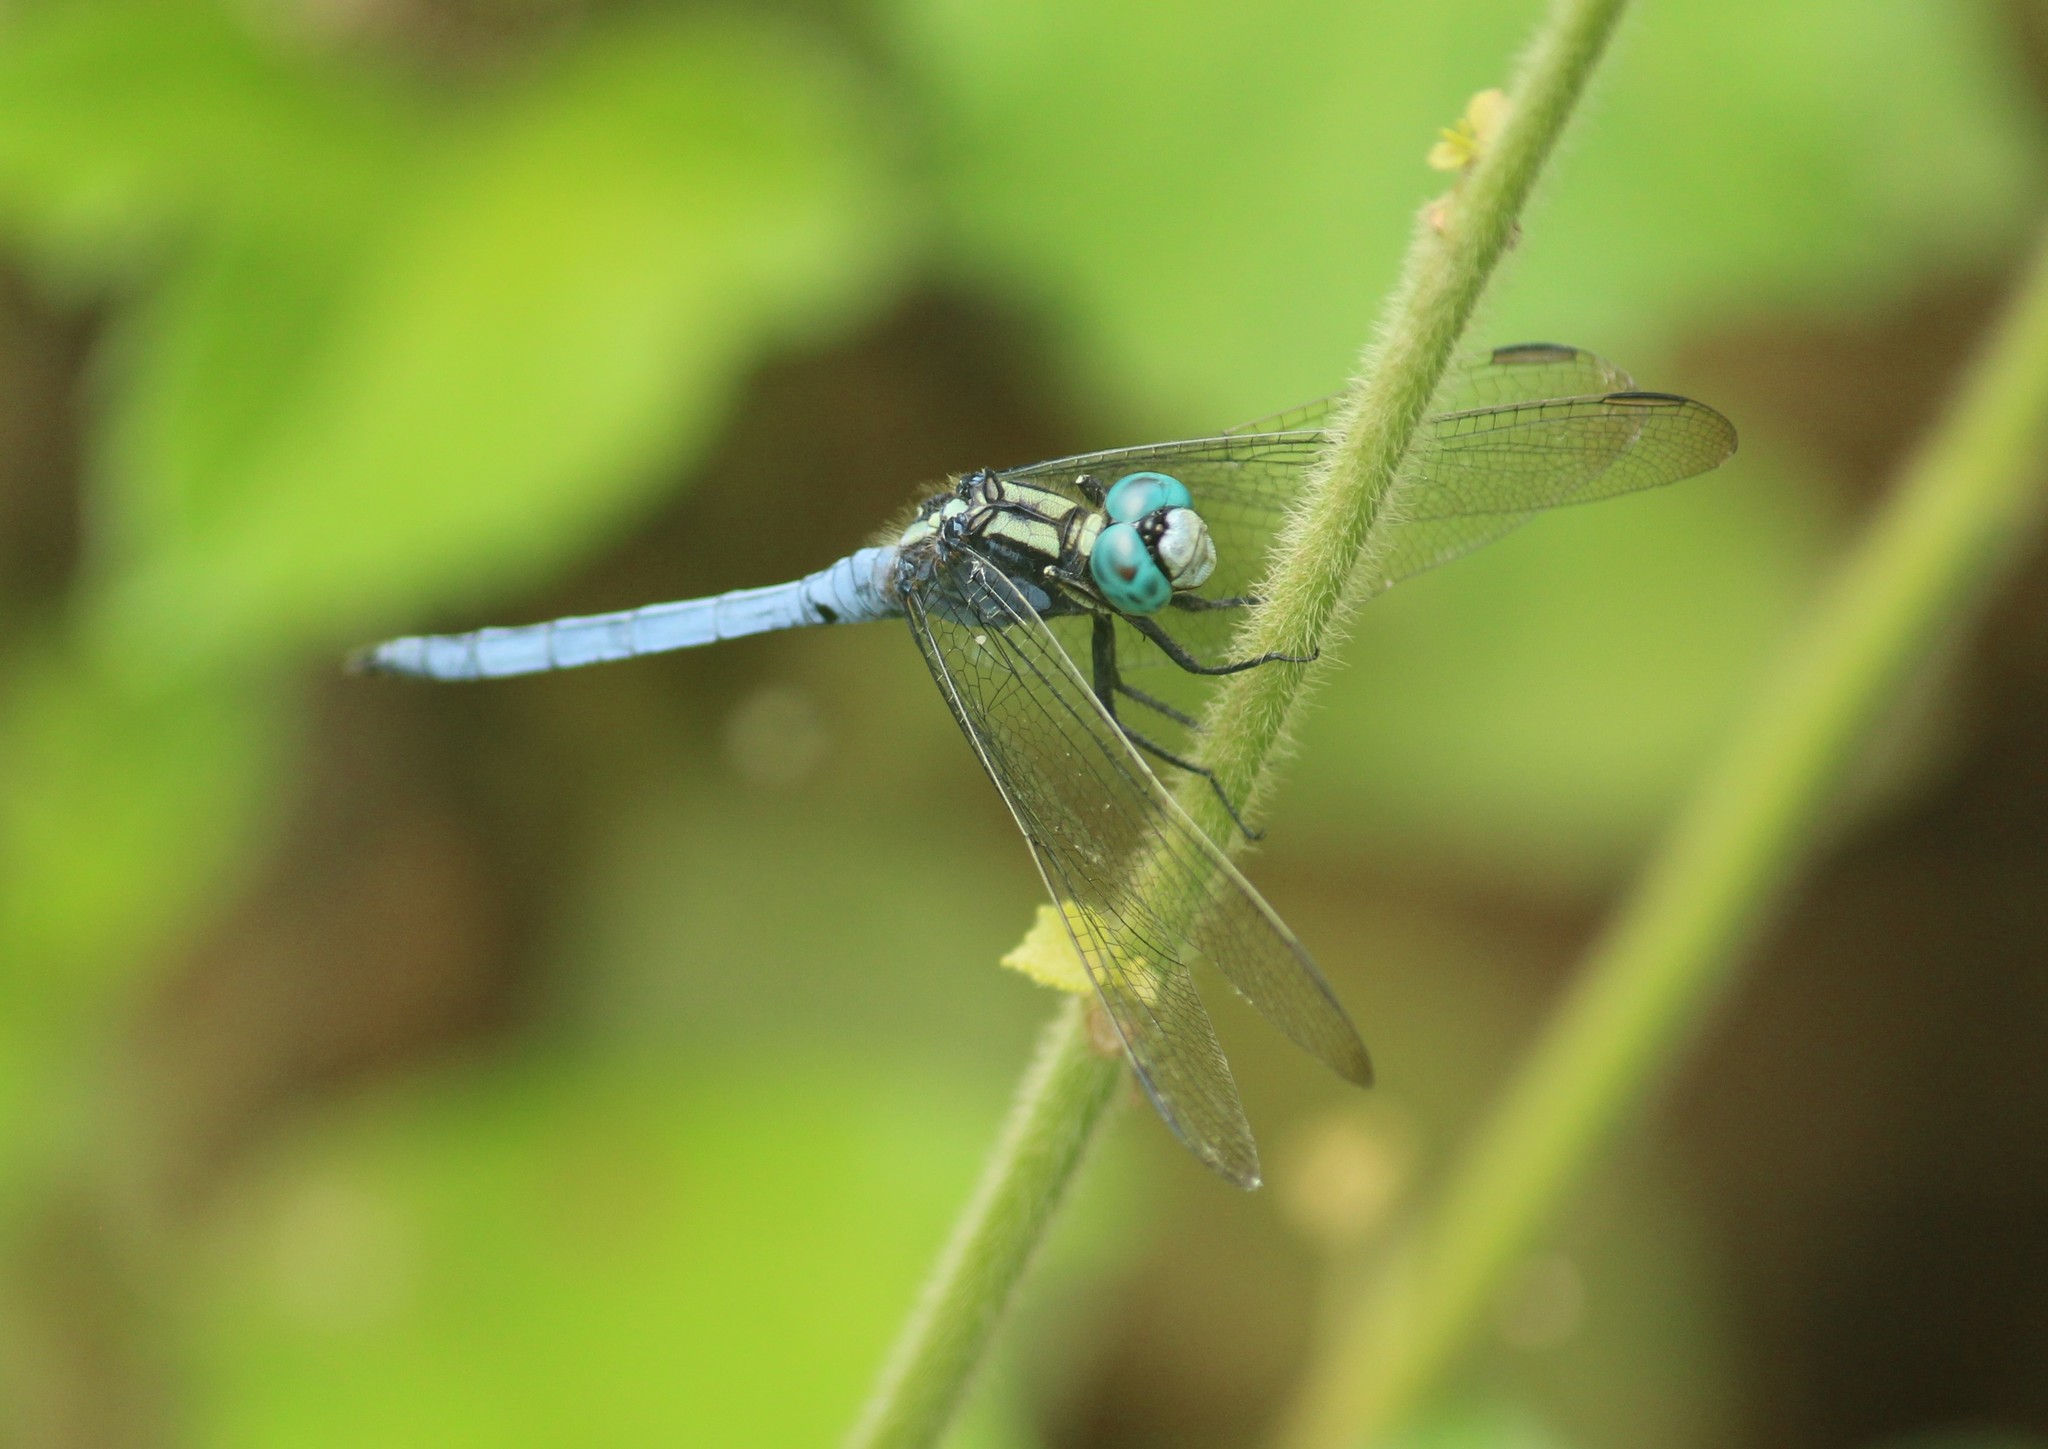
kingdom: Animalia
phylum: Arthropoda
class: Insecta
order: Odonata
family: Libellulidae
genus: Orthetrum
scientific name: Orthetrum luzonicum
